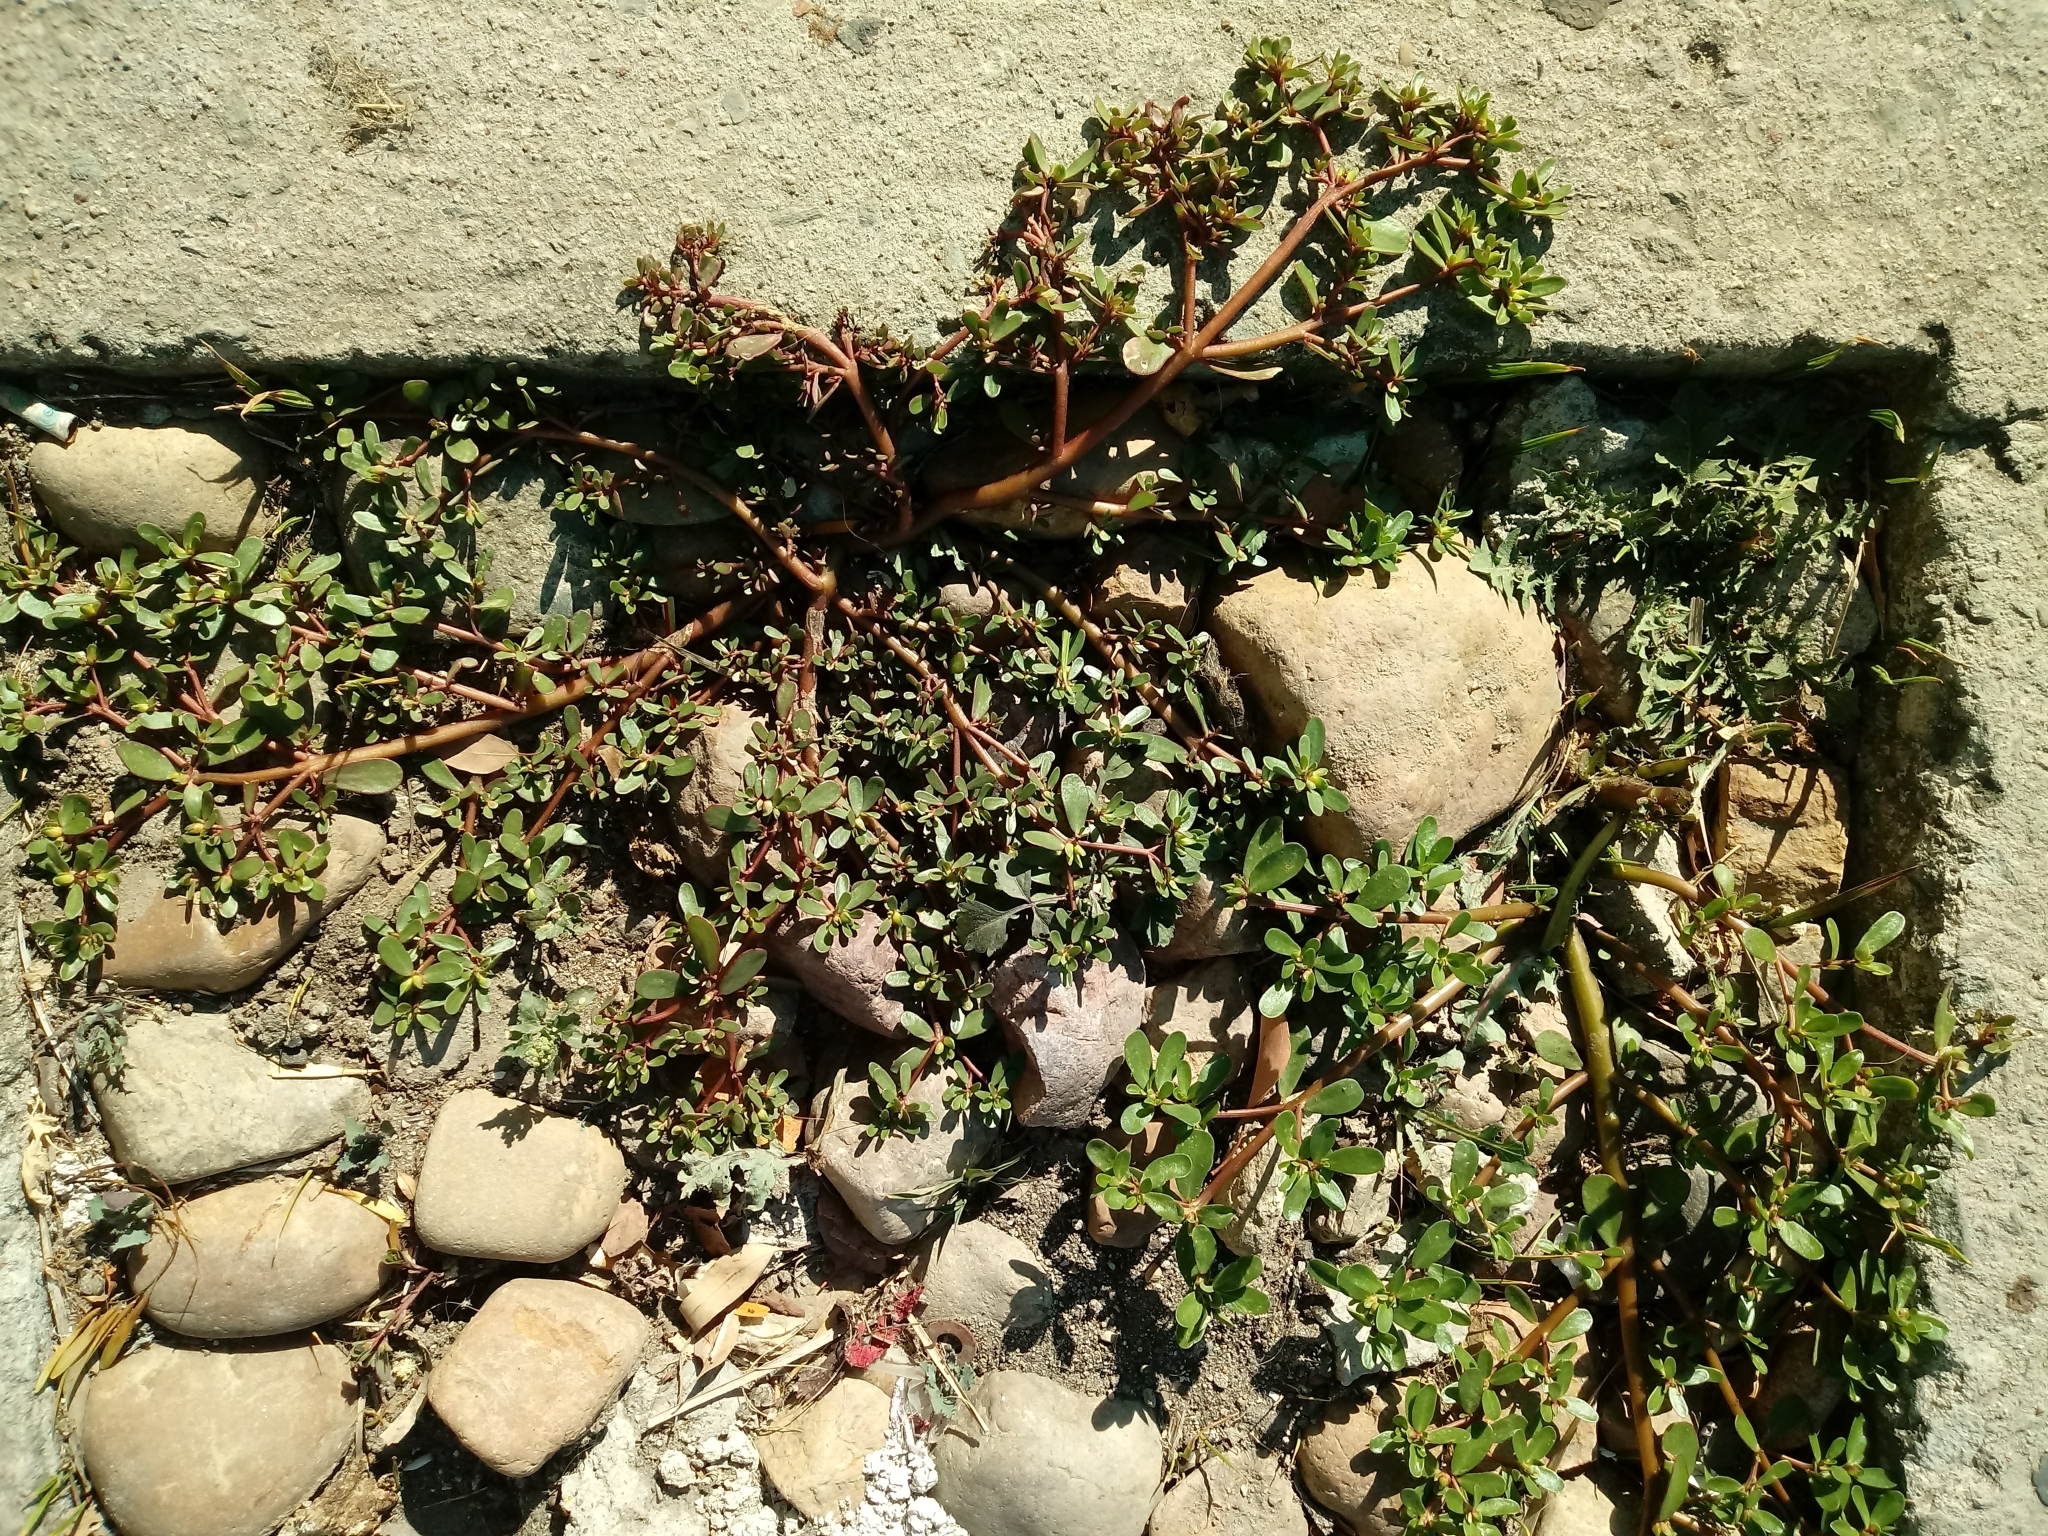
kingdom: Plantae
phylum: Tracheophyta
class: Magnoliopsida
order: Caryophyllales
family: Portulacaceae
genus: Portulaca
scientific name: Portulaca oleracea
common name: Common purslane
